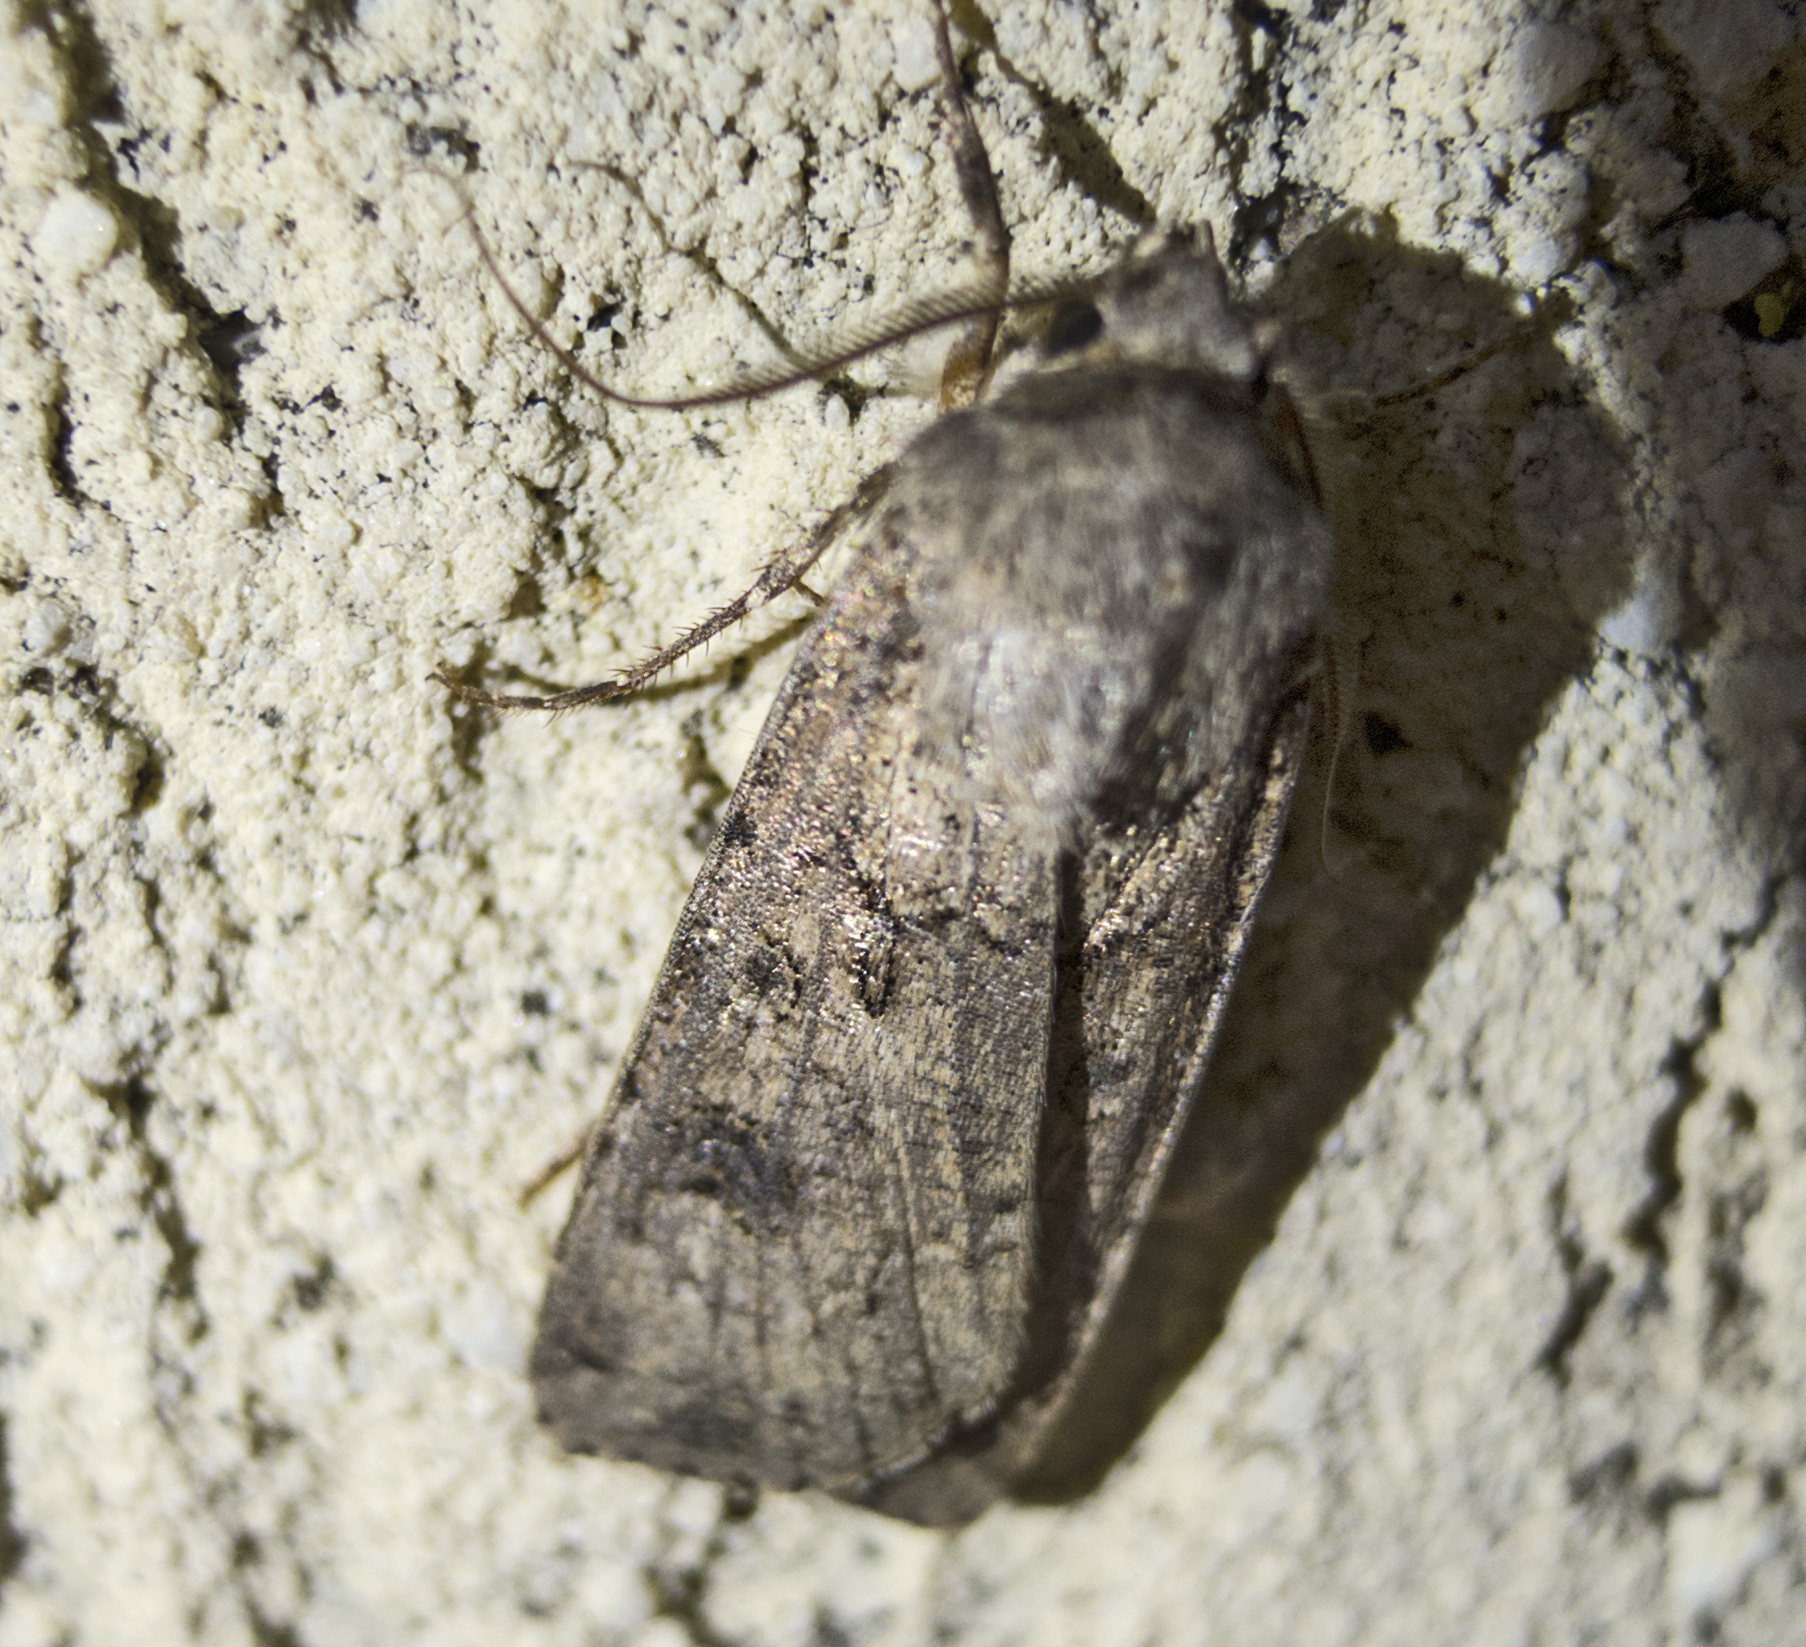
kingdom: Animalia
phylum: Arthropoda
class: Insecta
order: Lepidoptera
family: Noctuidae
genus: Agrotis
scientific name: Agrotis segetum
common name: Turnip moth
